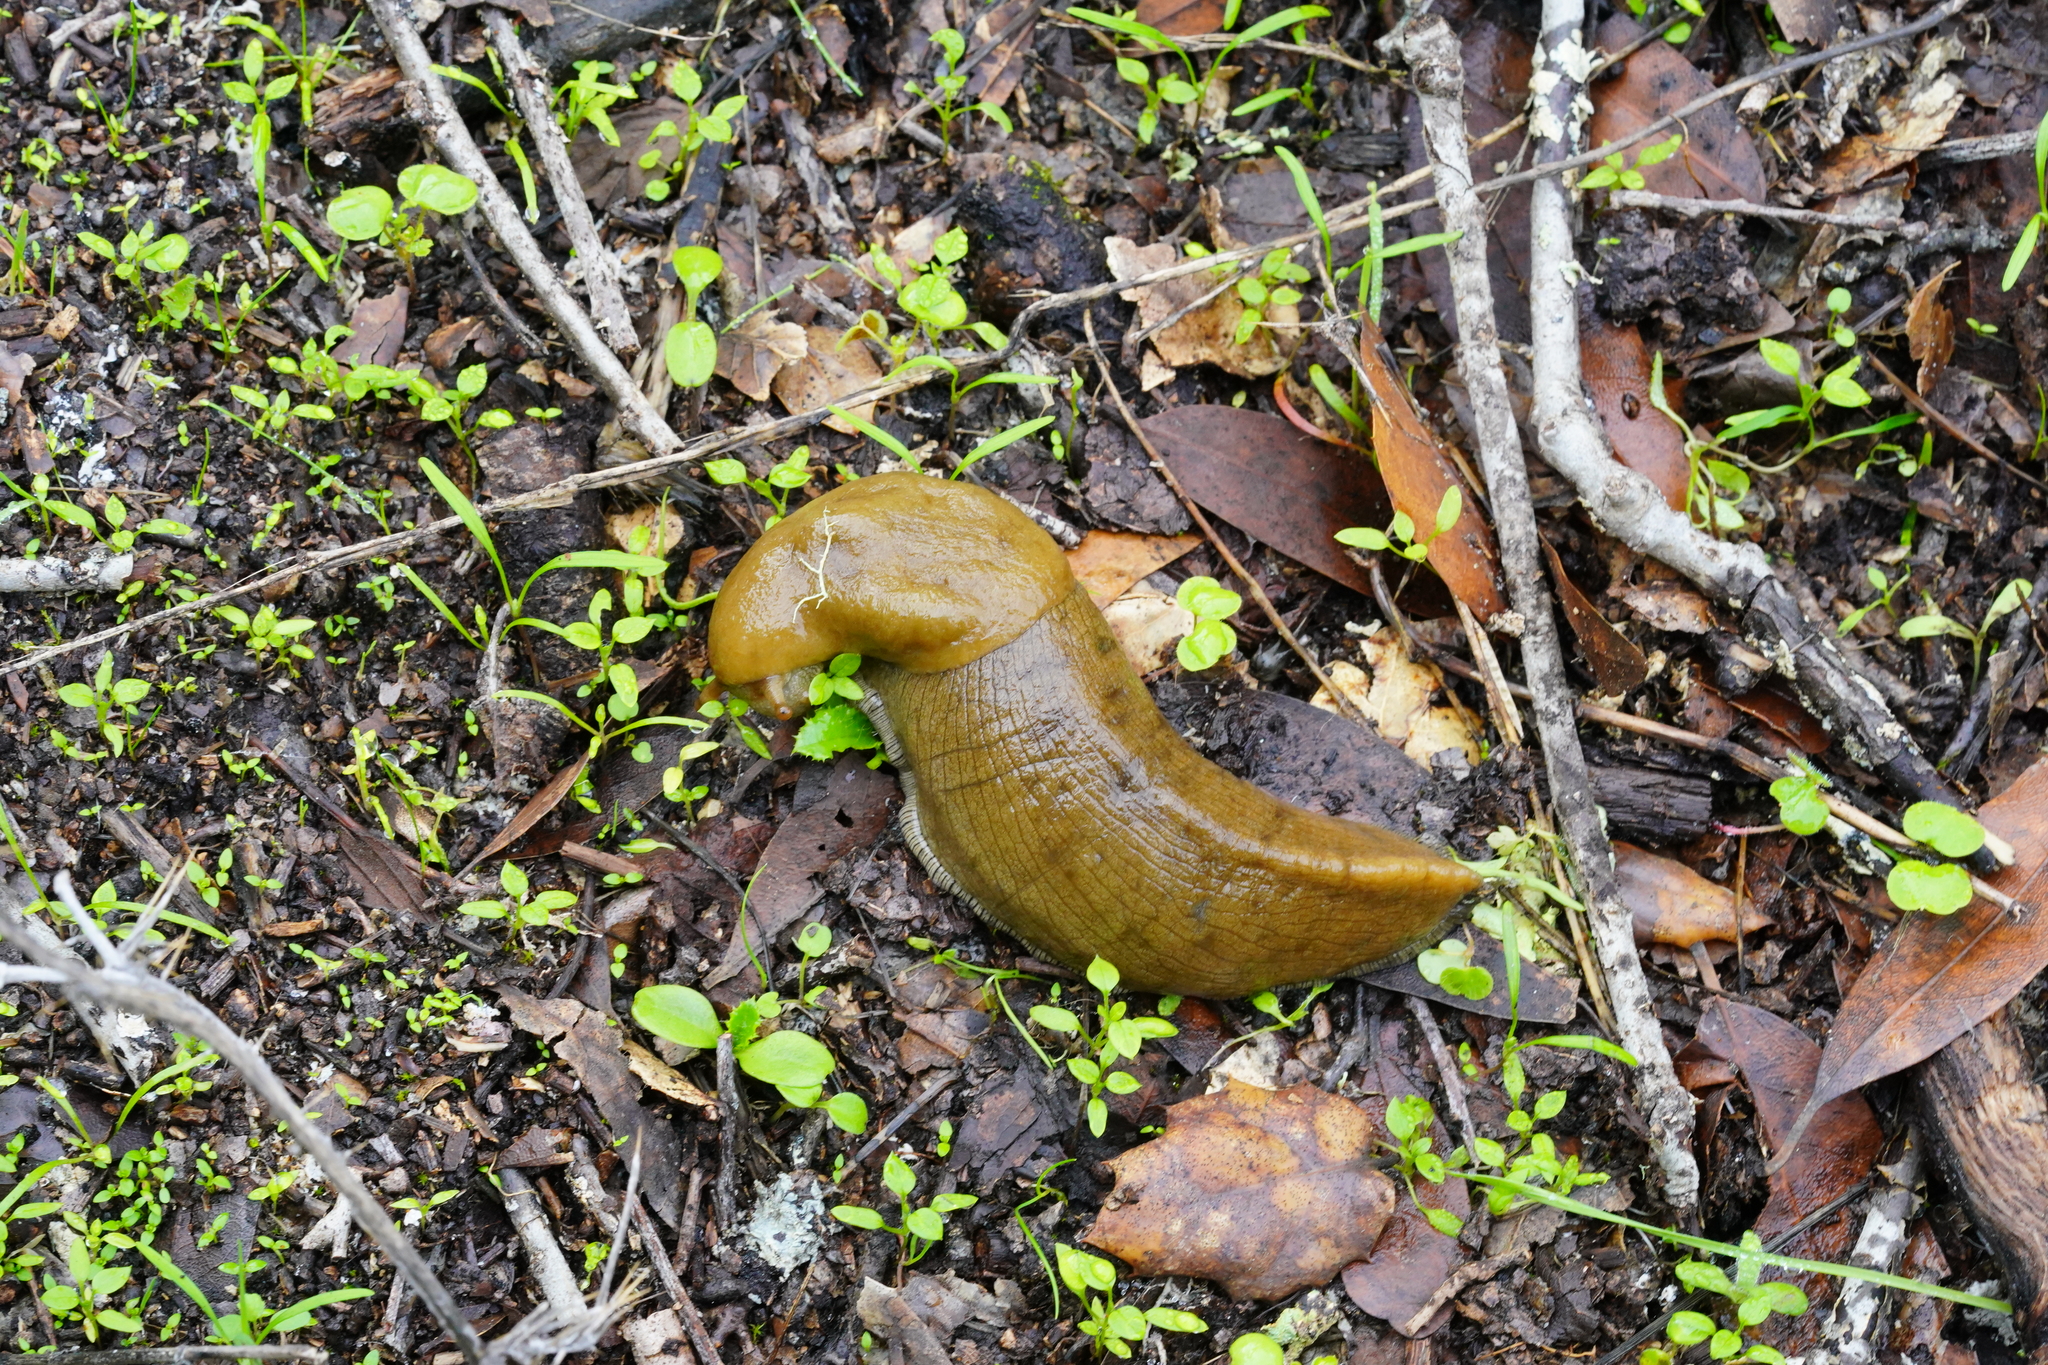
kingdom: Animalia
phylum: Mollusca
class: Gastropoda
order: Stylommatophora
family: Ariolimacidae
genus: Ariolimax
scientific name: Ariolimax buttoni
